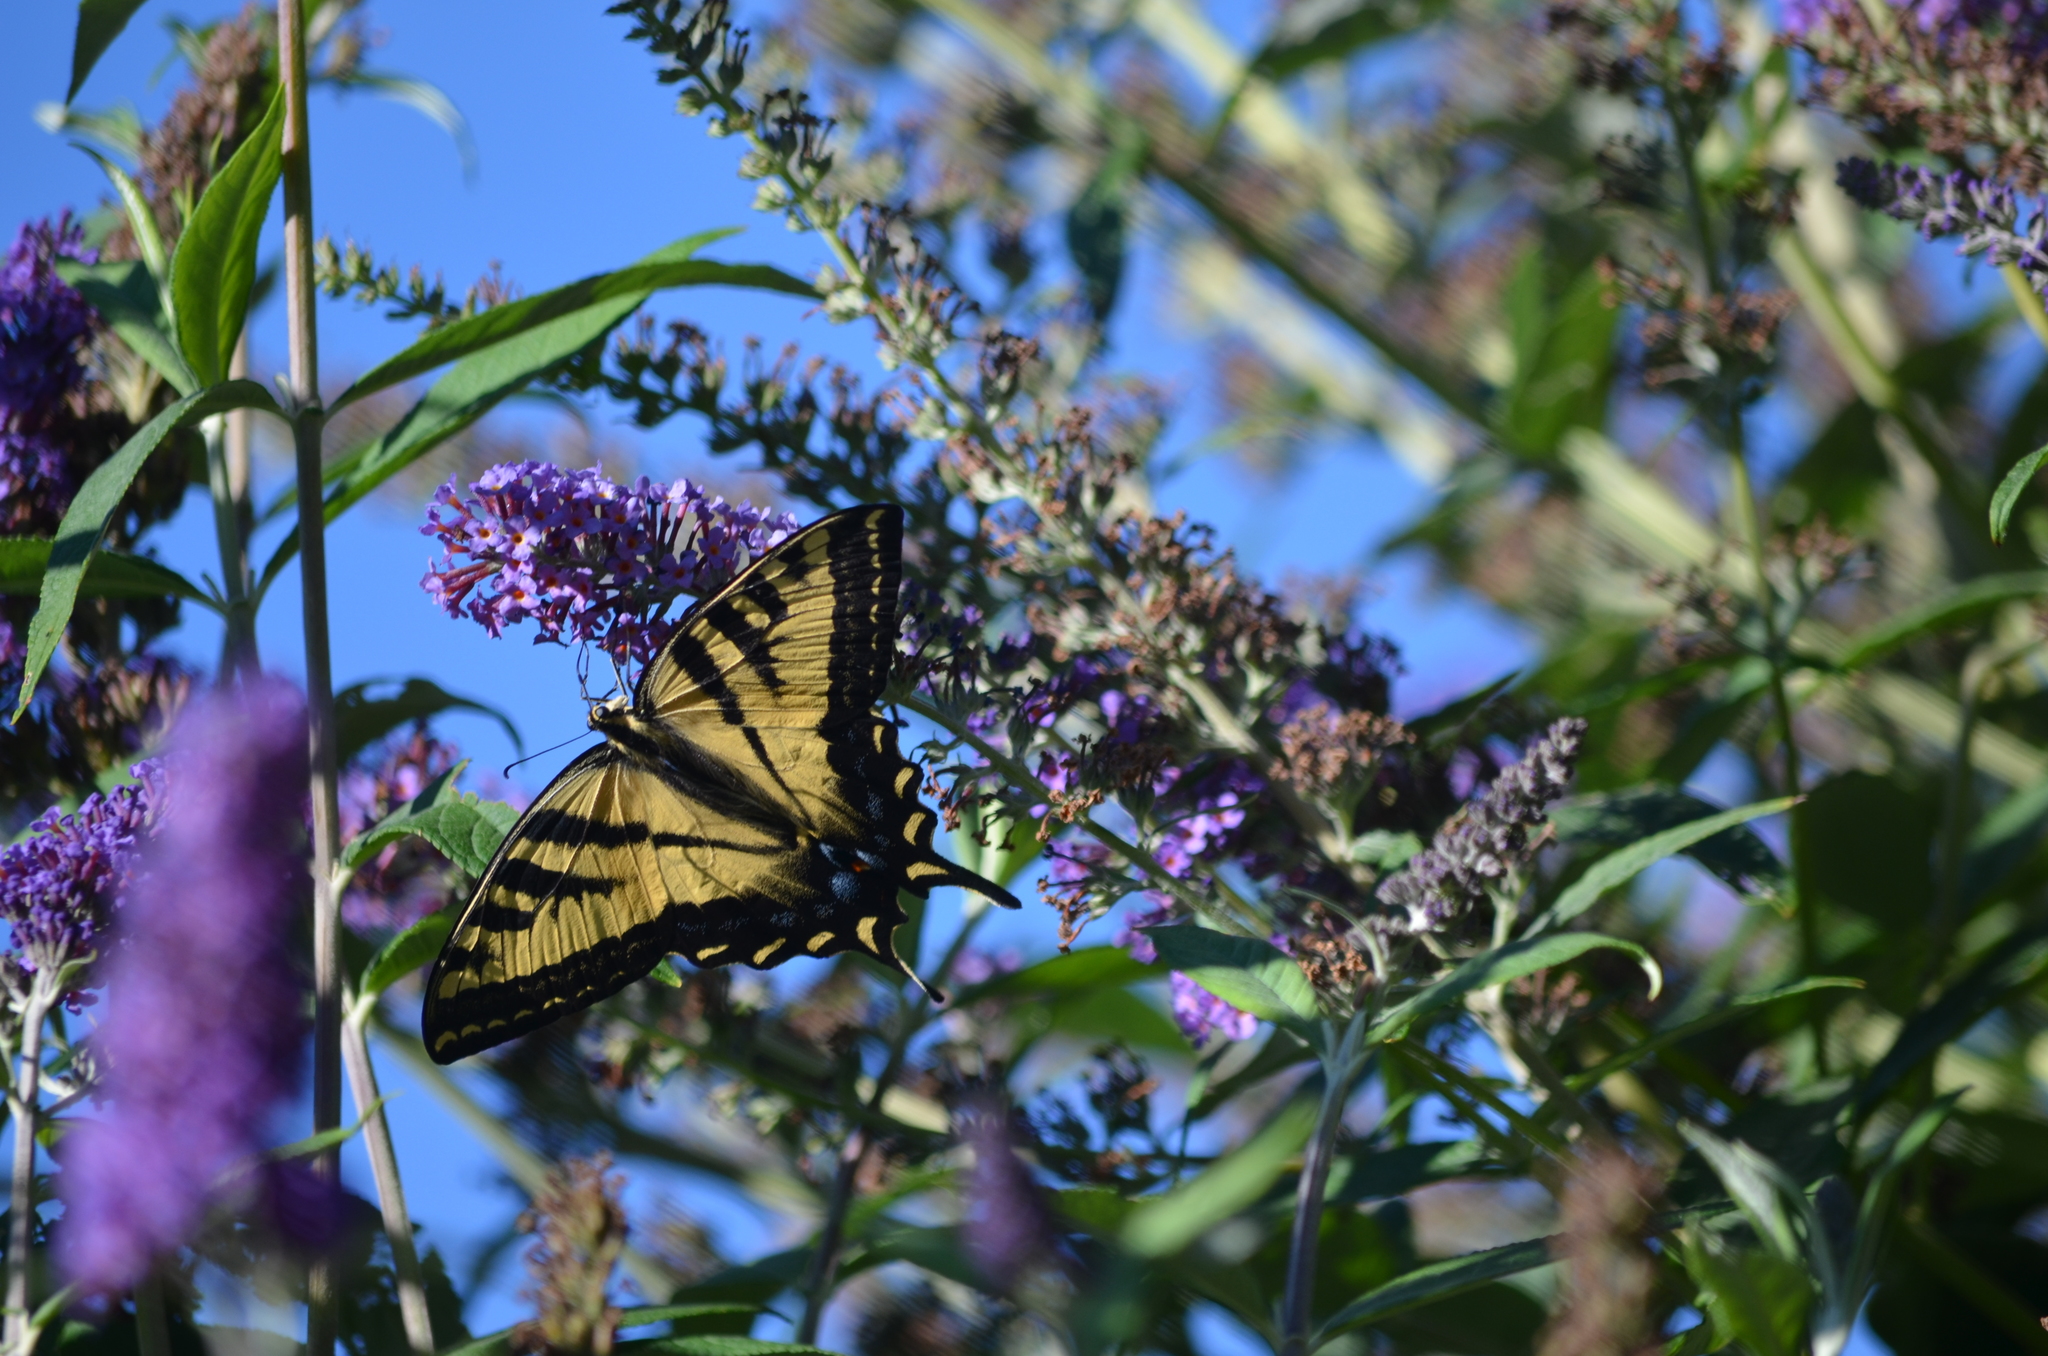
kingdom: Animalia
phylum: Arthropoda
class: Insecta
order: Lepidoptera
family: Papilionidae
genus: Papilio
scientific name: Papilio rutulus
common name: Western tiger swallowtail
